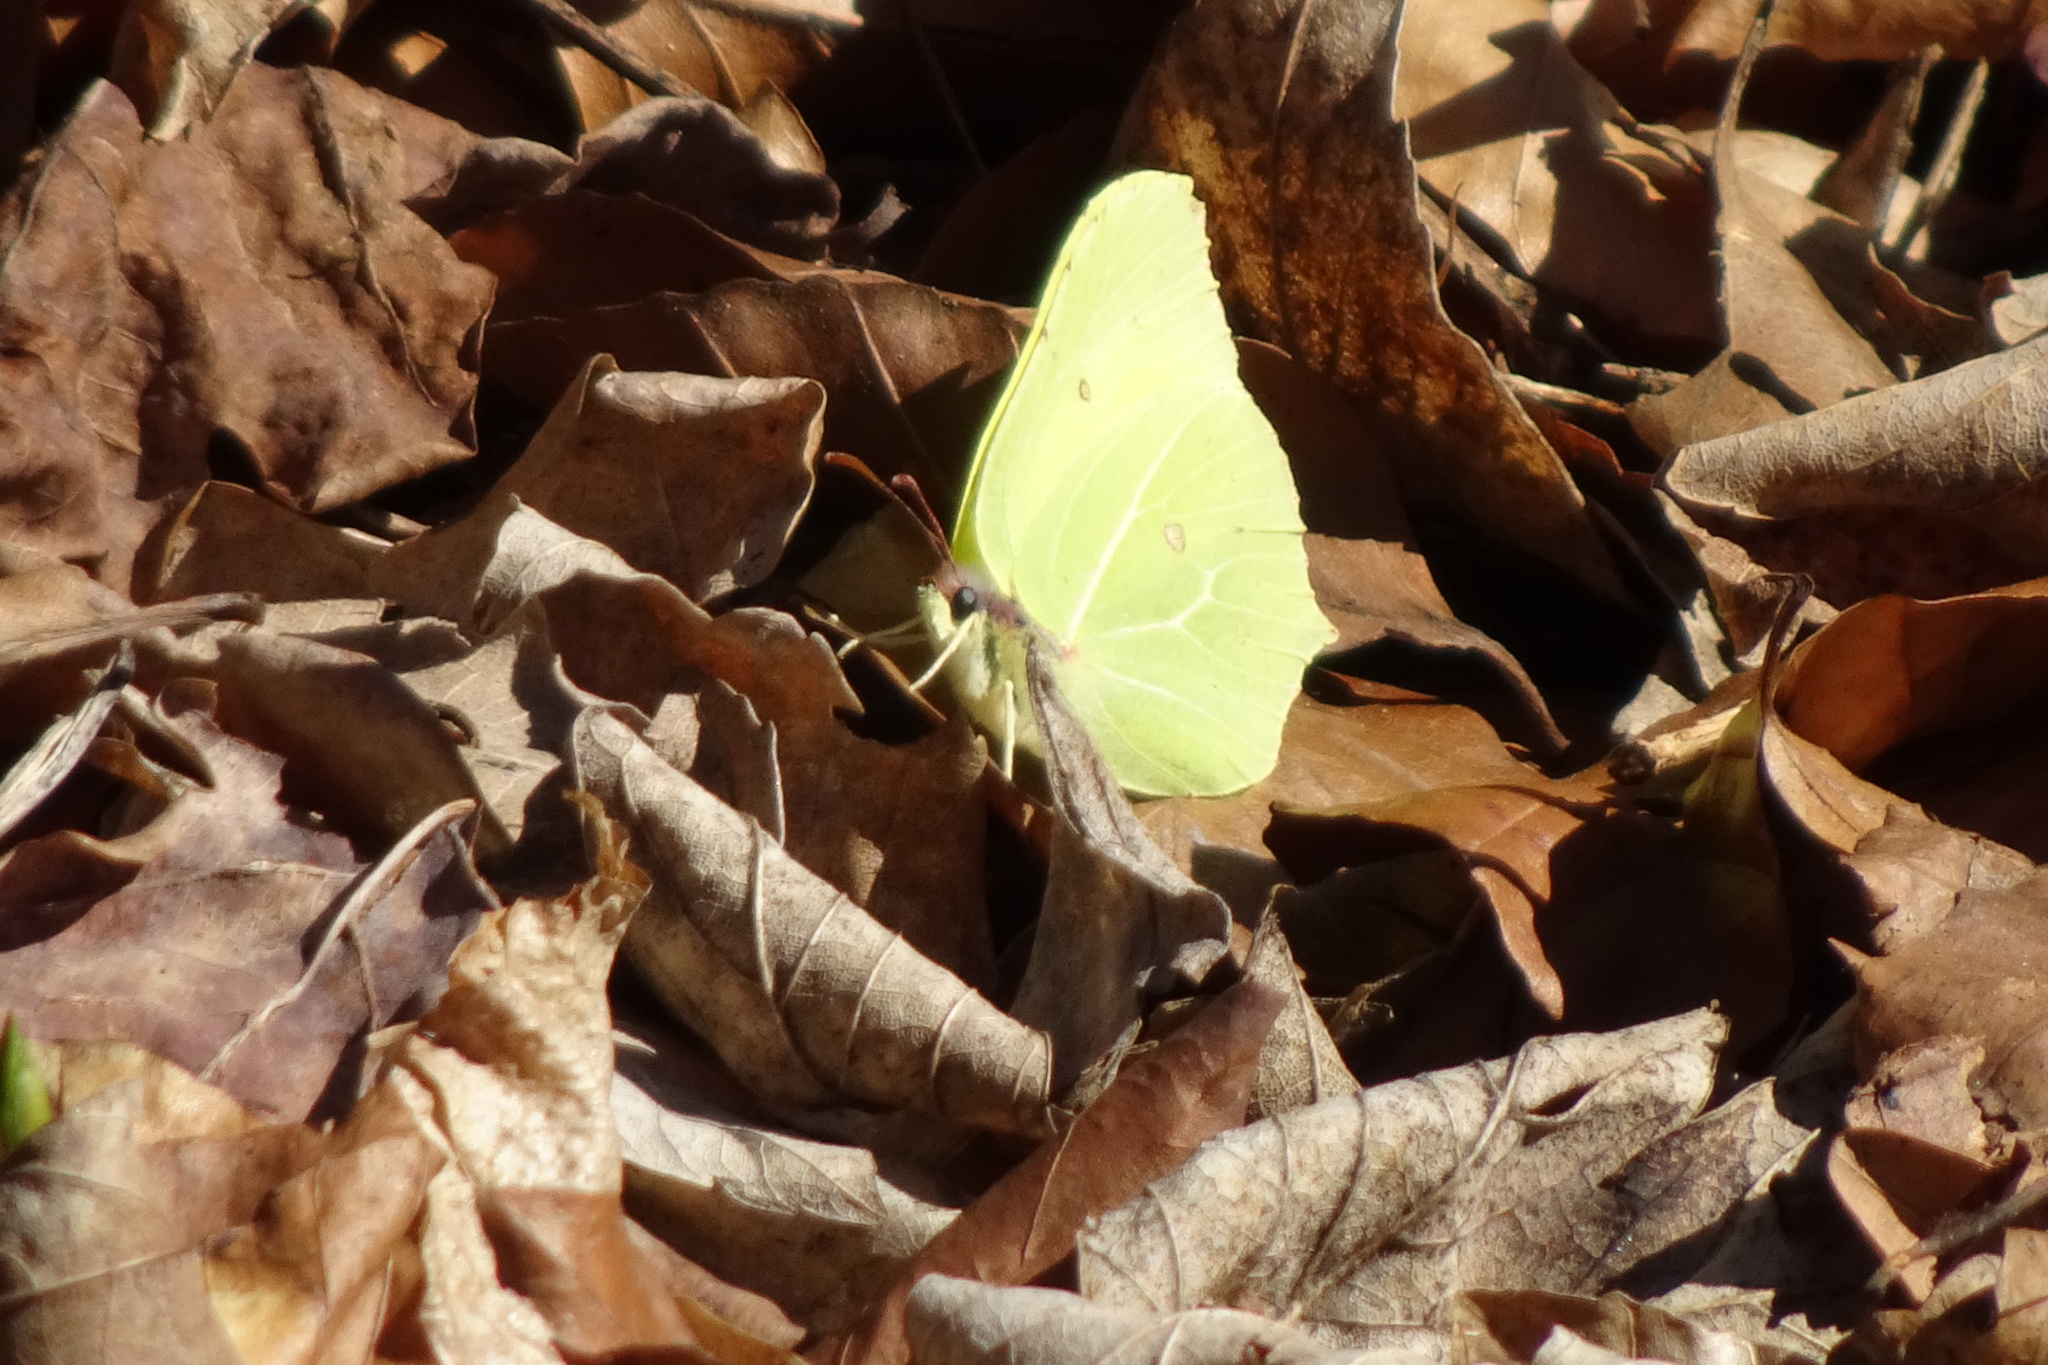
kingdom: Animalia
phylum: Arthropoda
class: Insecta
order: Lepidoptera
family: Pieridae
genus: Gonepteryx
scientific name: Gonepteryx rhamni
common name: Brimstone
